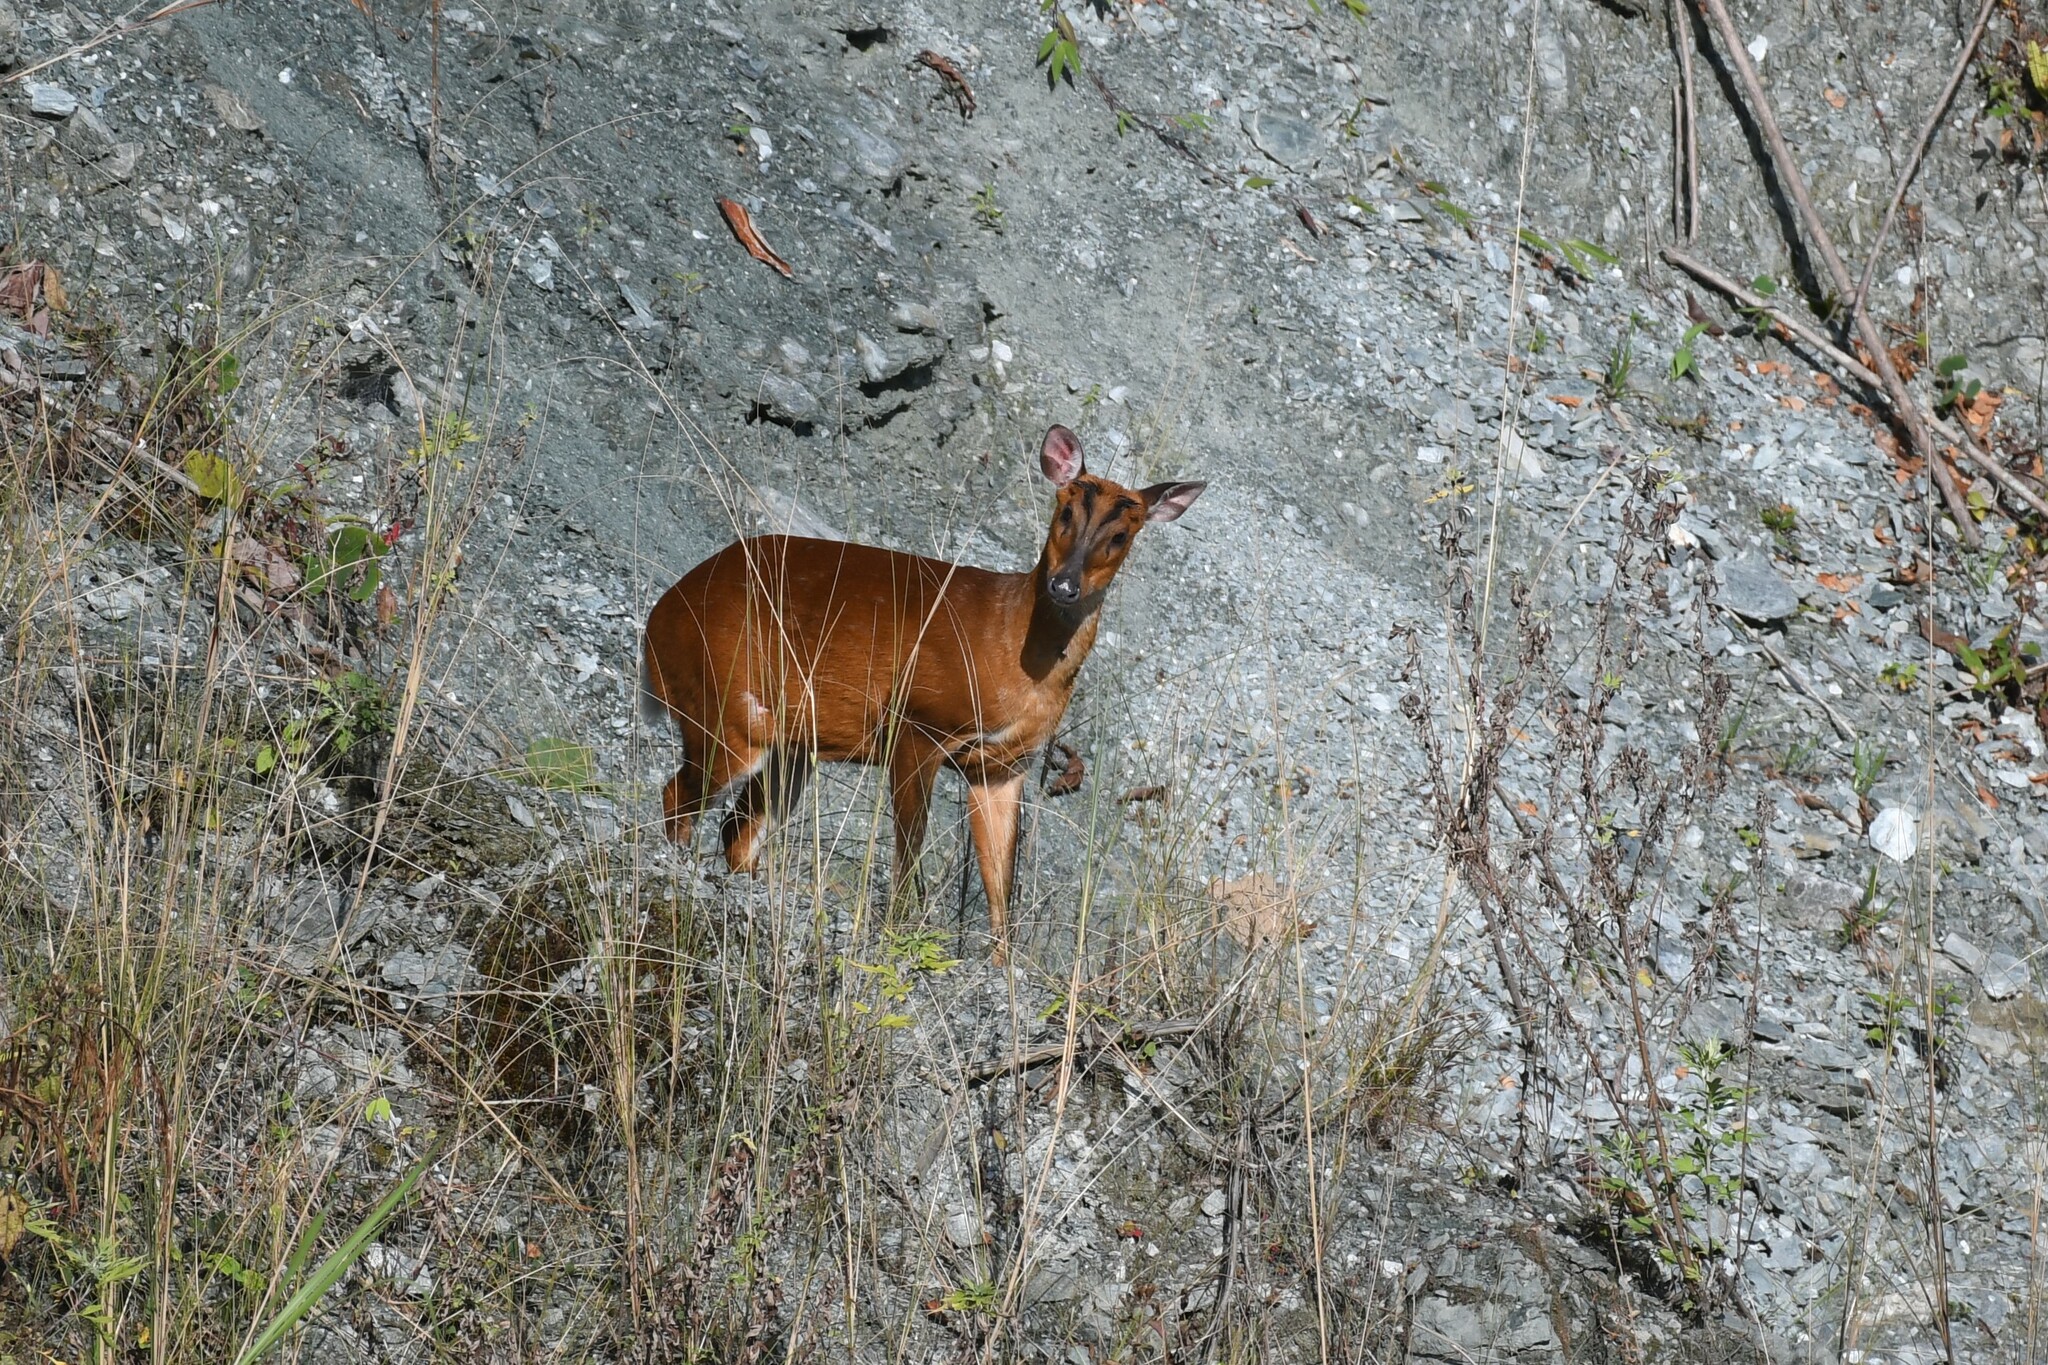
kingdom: Animalia
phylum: Chordata
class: Mammalia
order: Artiodactyla
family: Cervidae
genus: Muntiacus
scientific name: Muntiacus muntjak
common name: Indian muntjac
